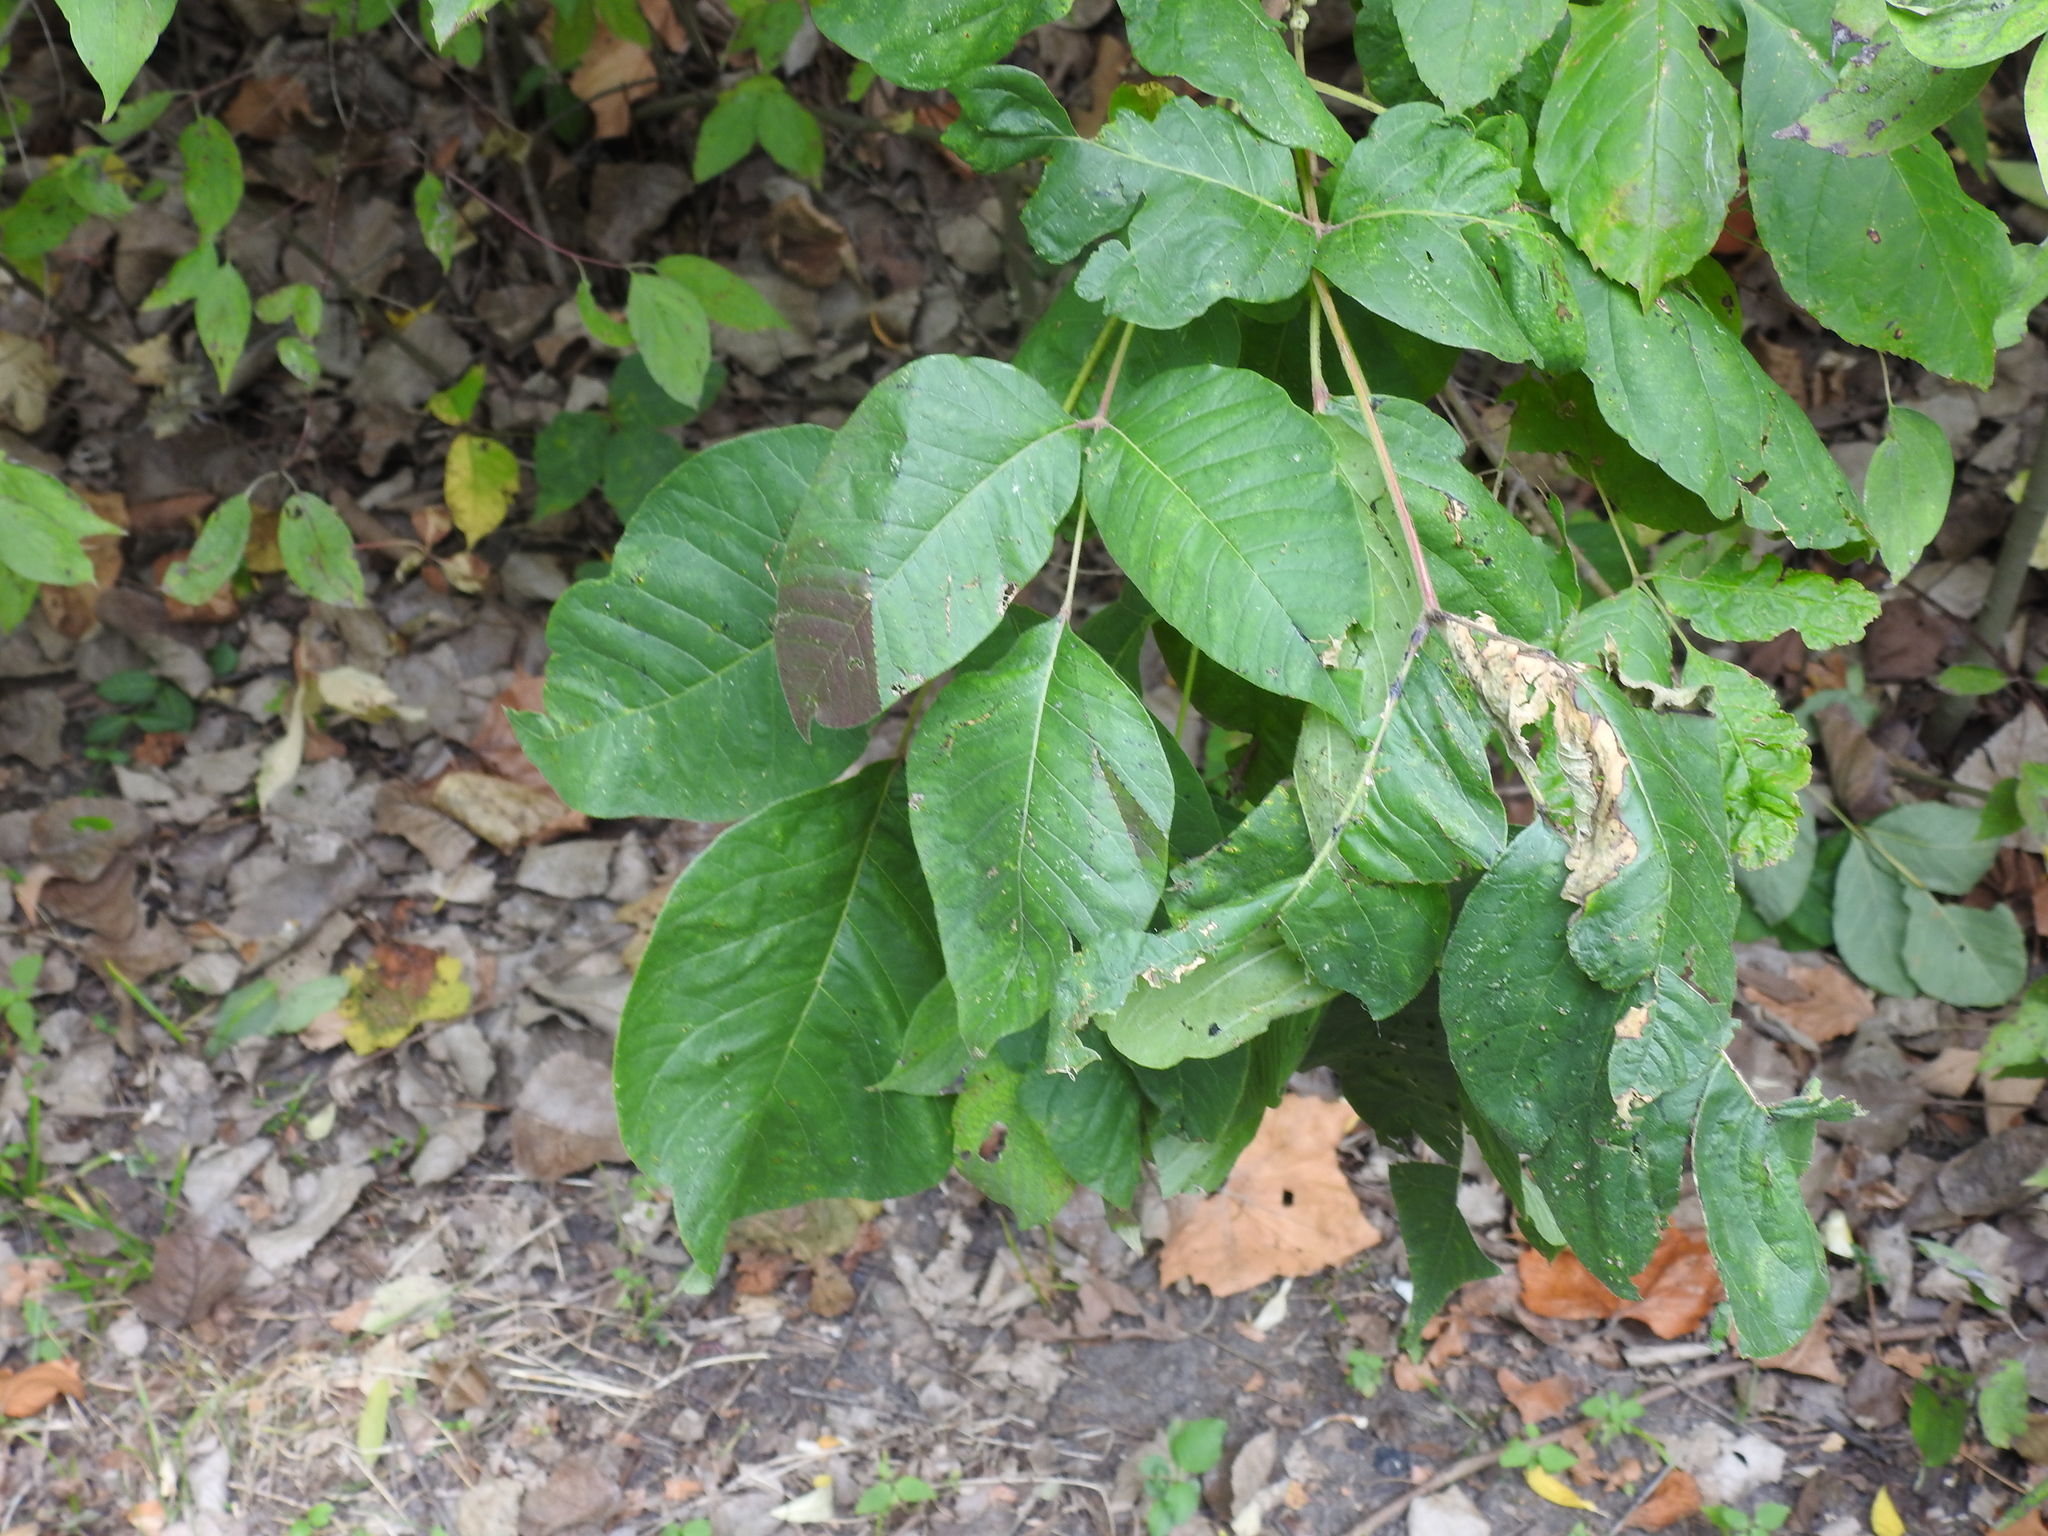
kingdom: Plantae
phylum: Tracheophyta
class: Magnoliopsida
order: Sapindales
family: Anacardiaceae
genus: Toxicodendron
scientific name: Toxicodendron radicans
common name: Poison ivy
